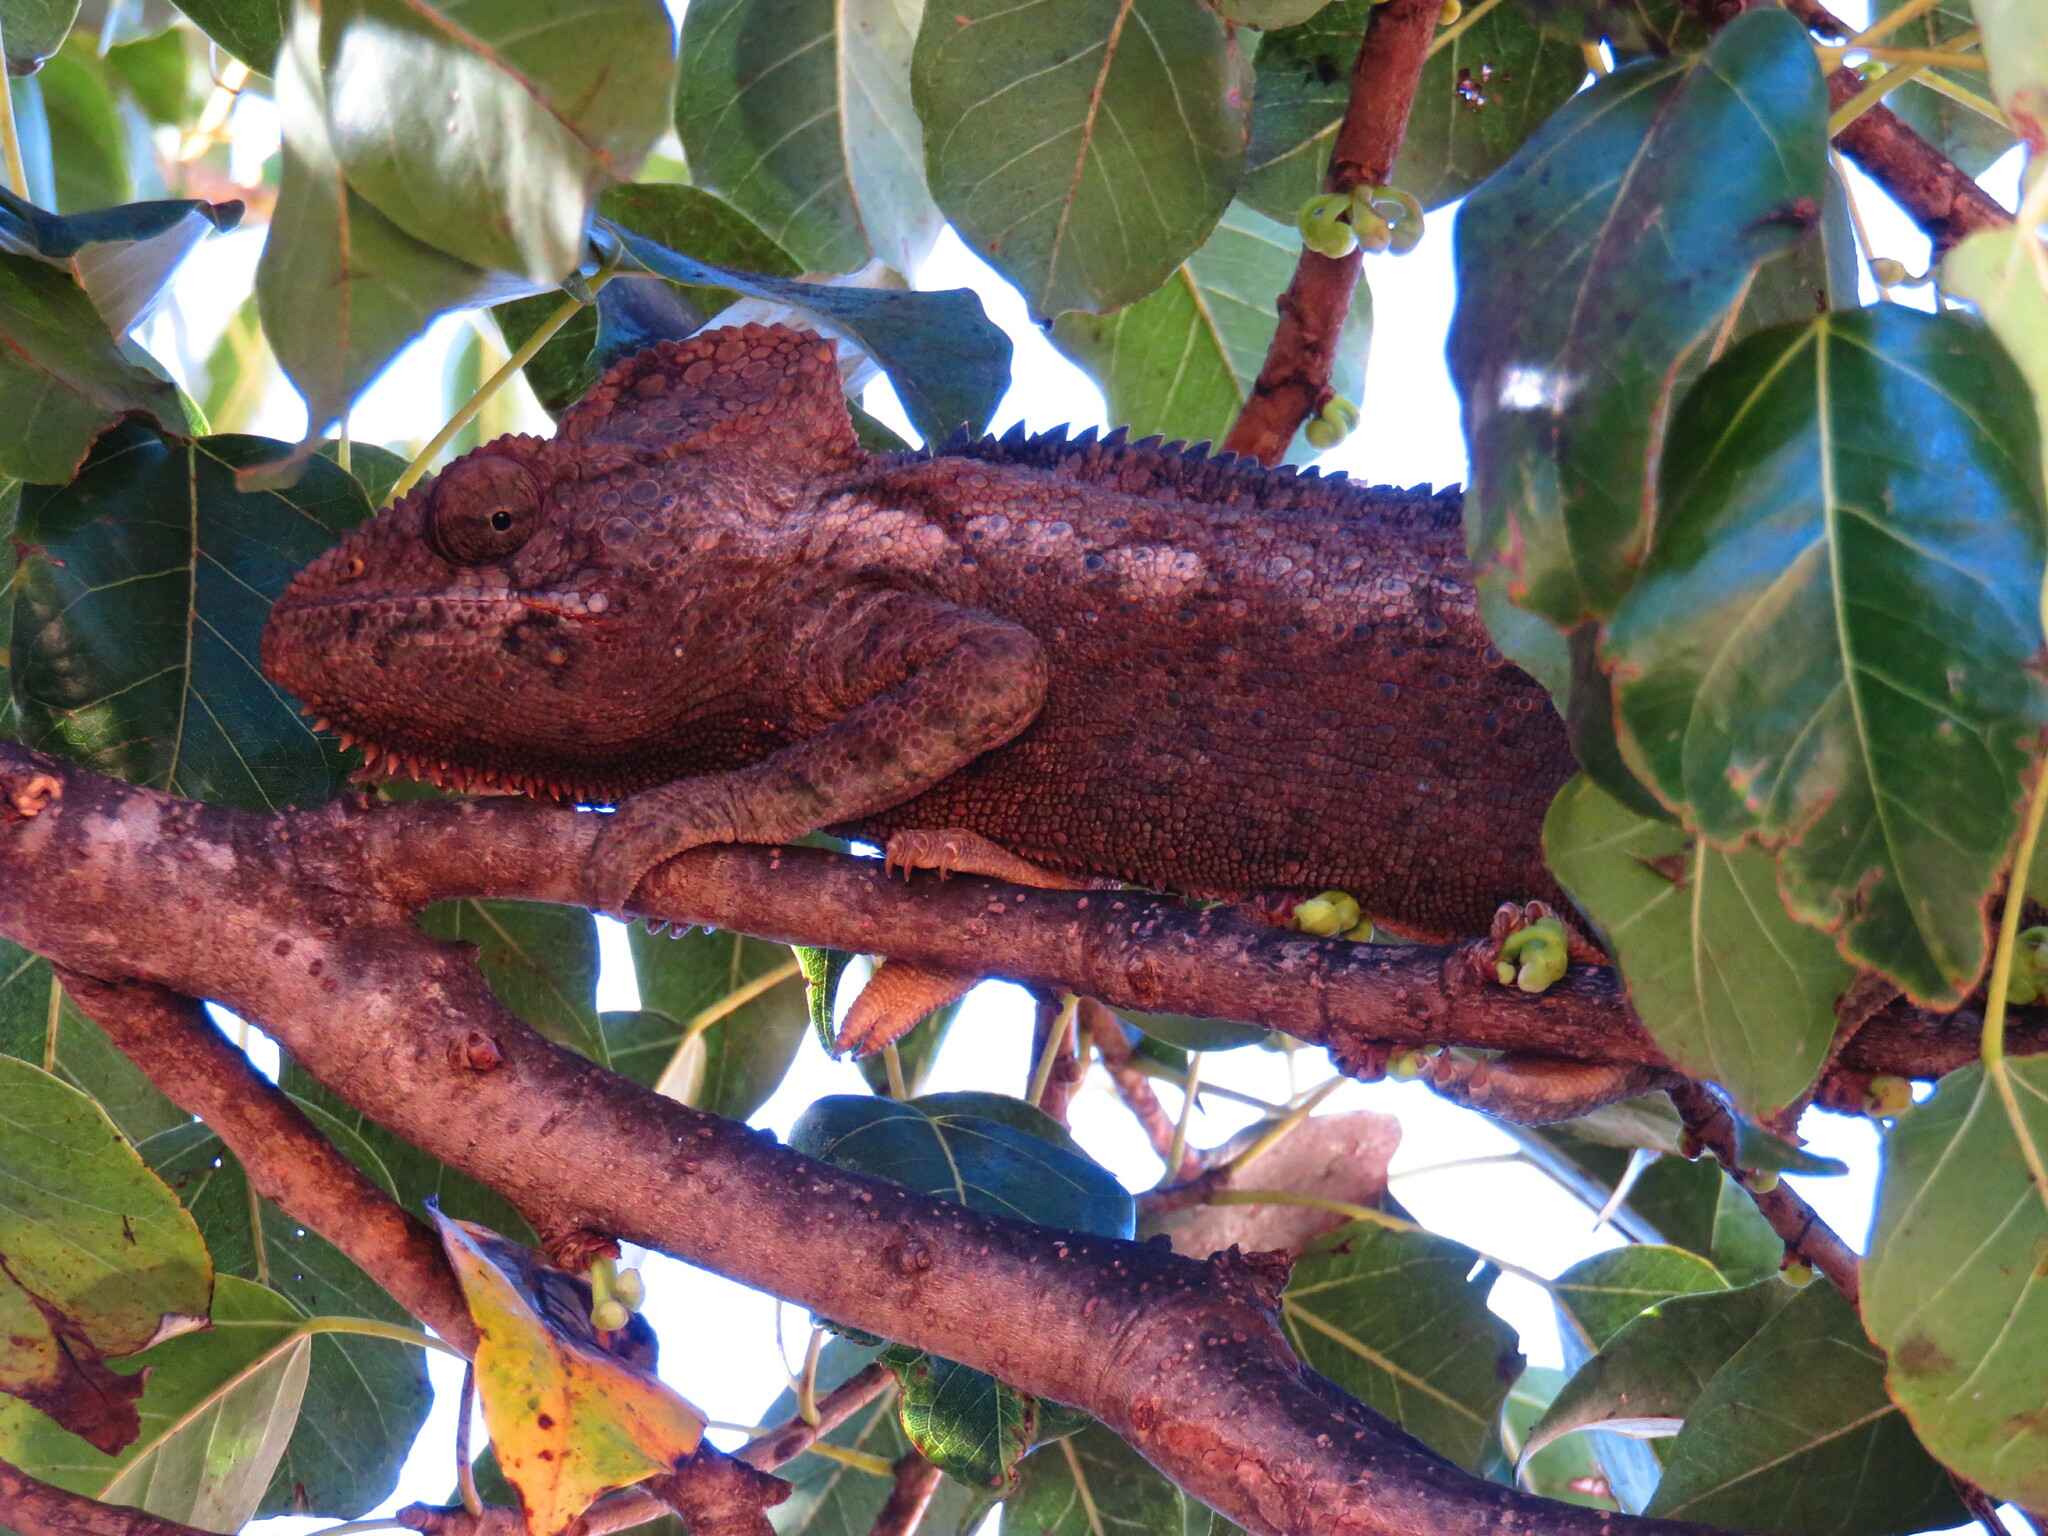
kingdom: Animalia
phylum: Chordata
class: Squamata
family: Chamaeleonidae
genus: Furcifer
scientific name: Furcifer oustaleti
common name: Oustalet's chameleon
